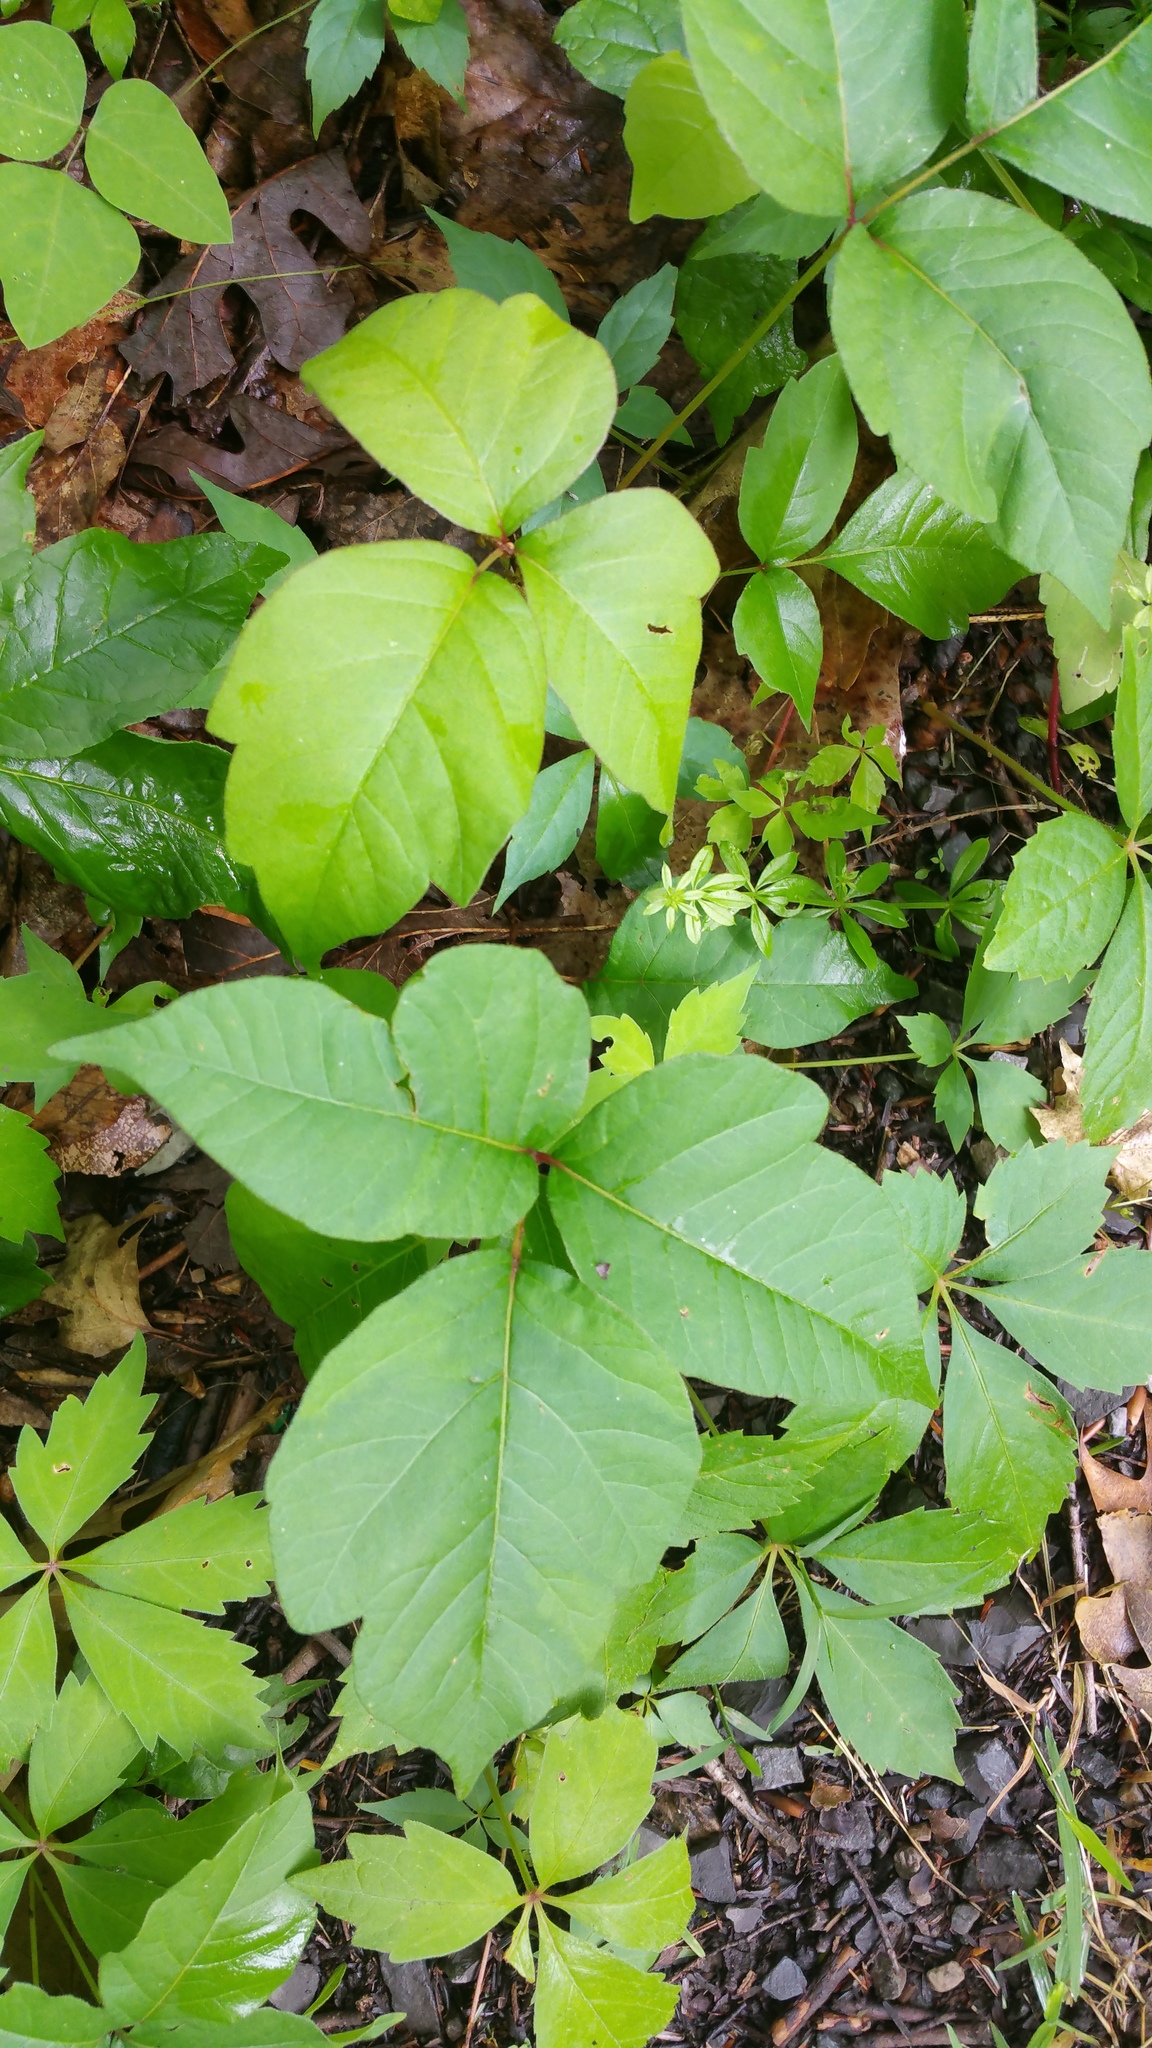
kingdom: Plantae
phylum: Tracheophyta
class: Magnoliopsida
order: Sapindales
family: Anacardiaceae
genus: Toxicodendron
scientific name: Toxicodendron radicans
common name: Poison ivy
